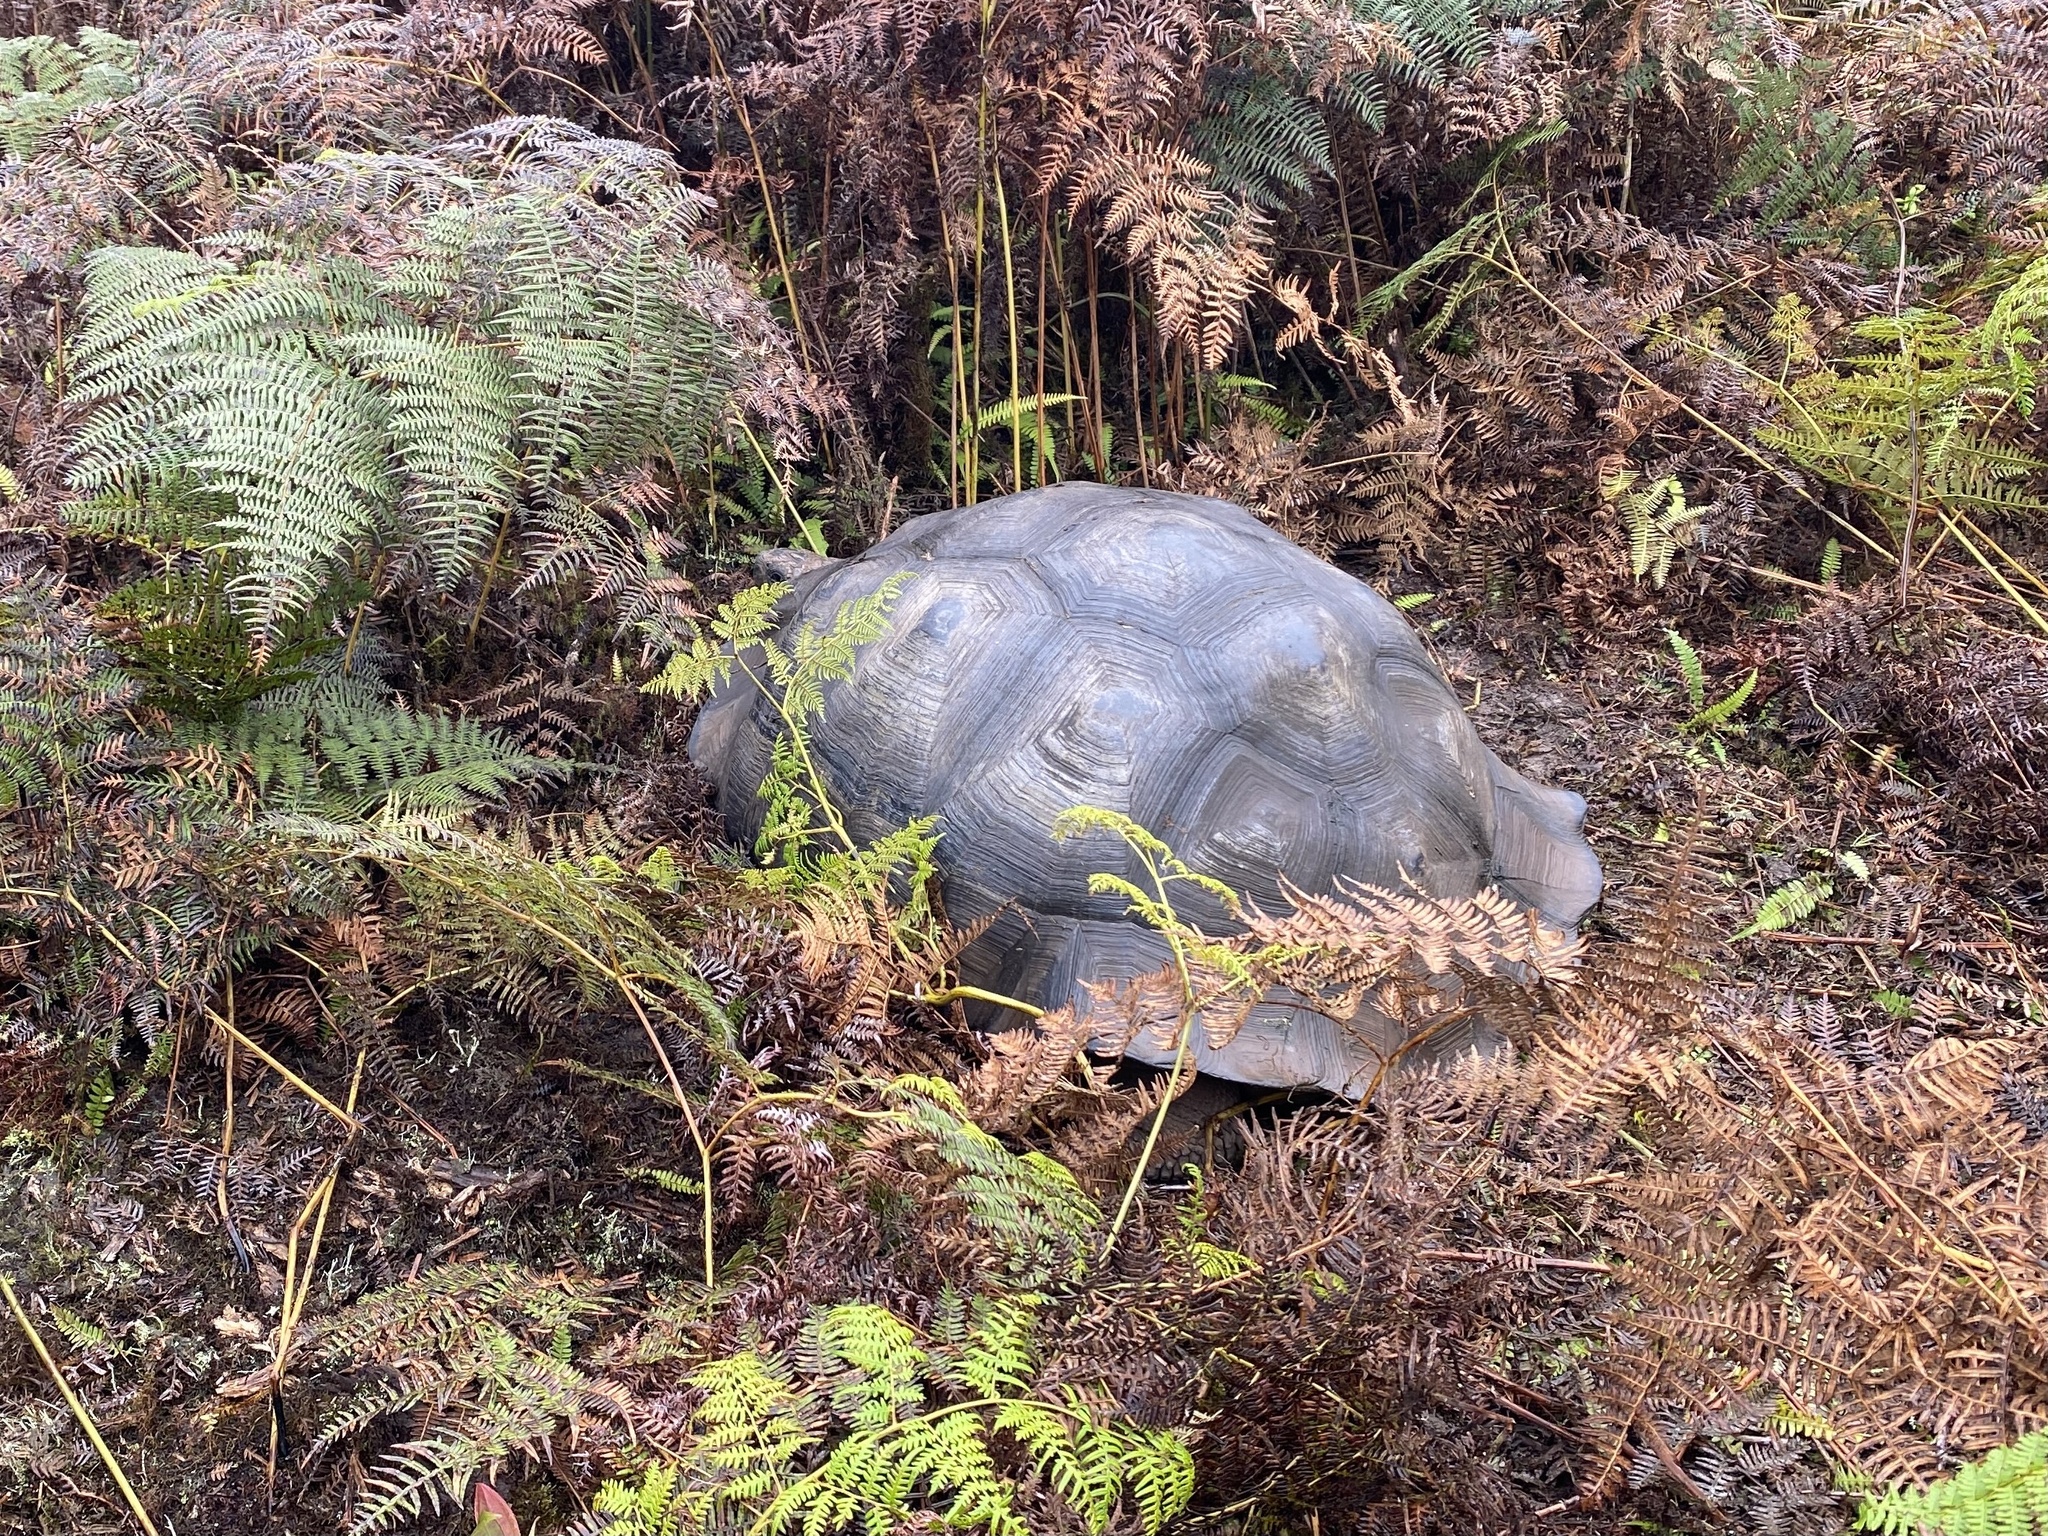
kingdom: Animalia
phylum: Chordata
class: Testudines
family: Testudinidae
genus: Chelonoidis
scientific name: Chelonoidis porteri
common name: Indefatigable island giant tortoise
